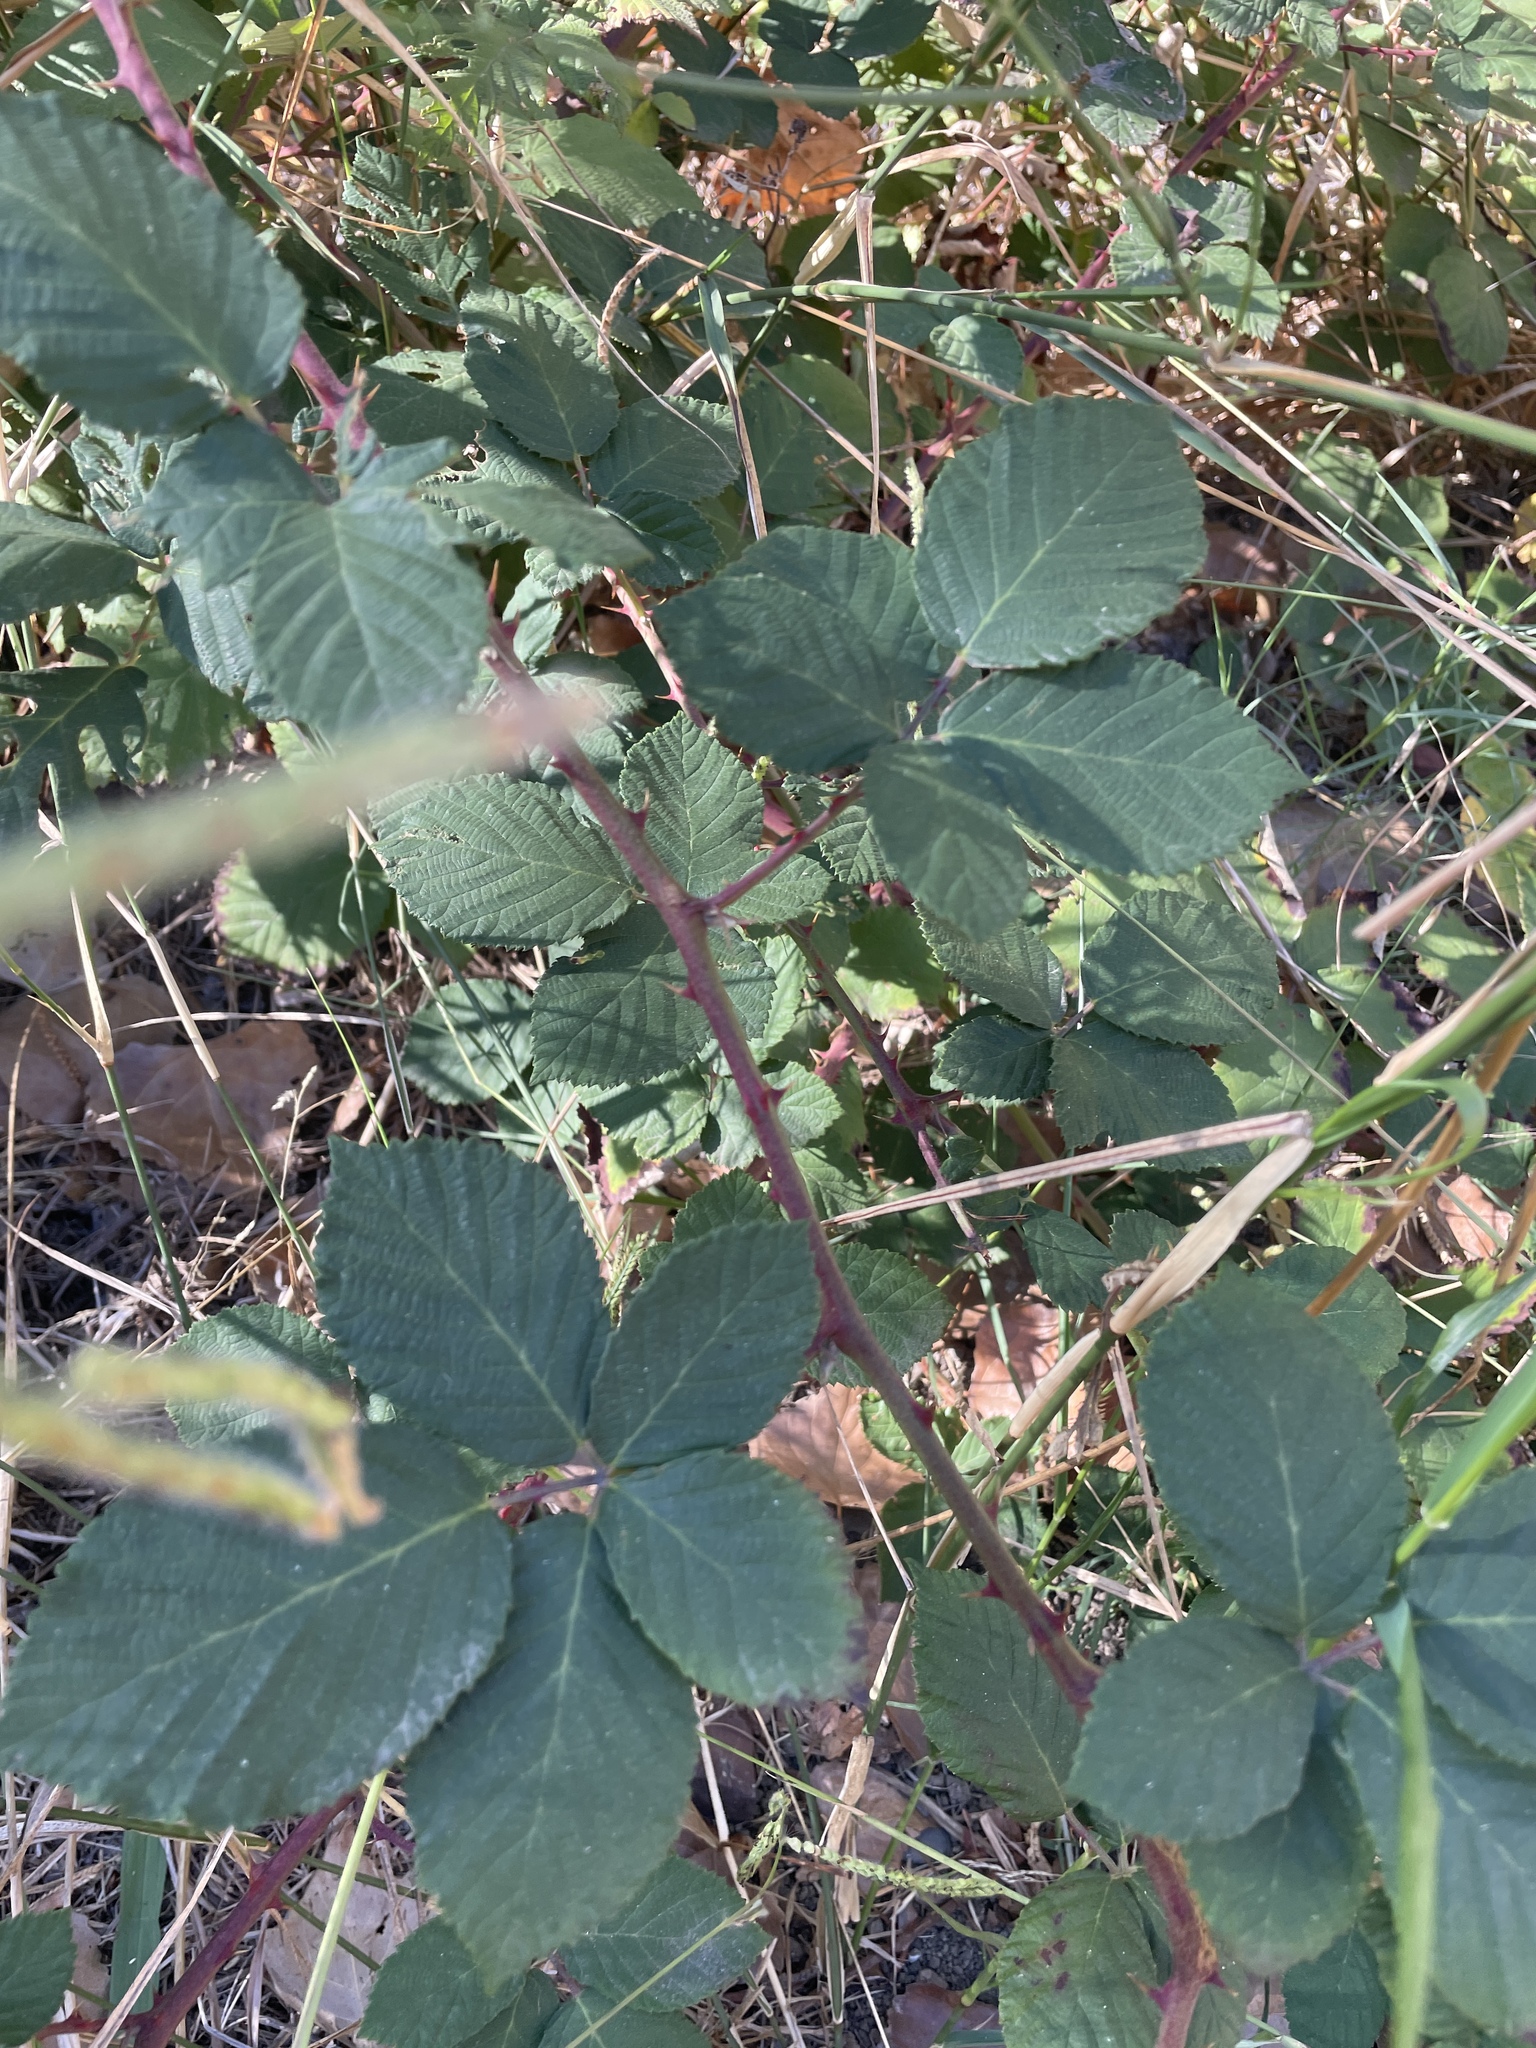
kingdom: Plantae
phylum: Tracheophyta
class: Magnoliopsida
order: Rosales
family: Rosaceae
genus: Rubus
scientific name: Rubus armeniacus
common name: Himalayan blackberry
